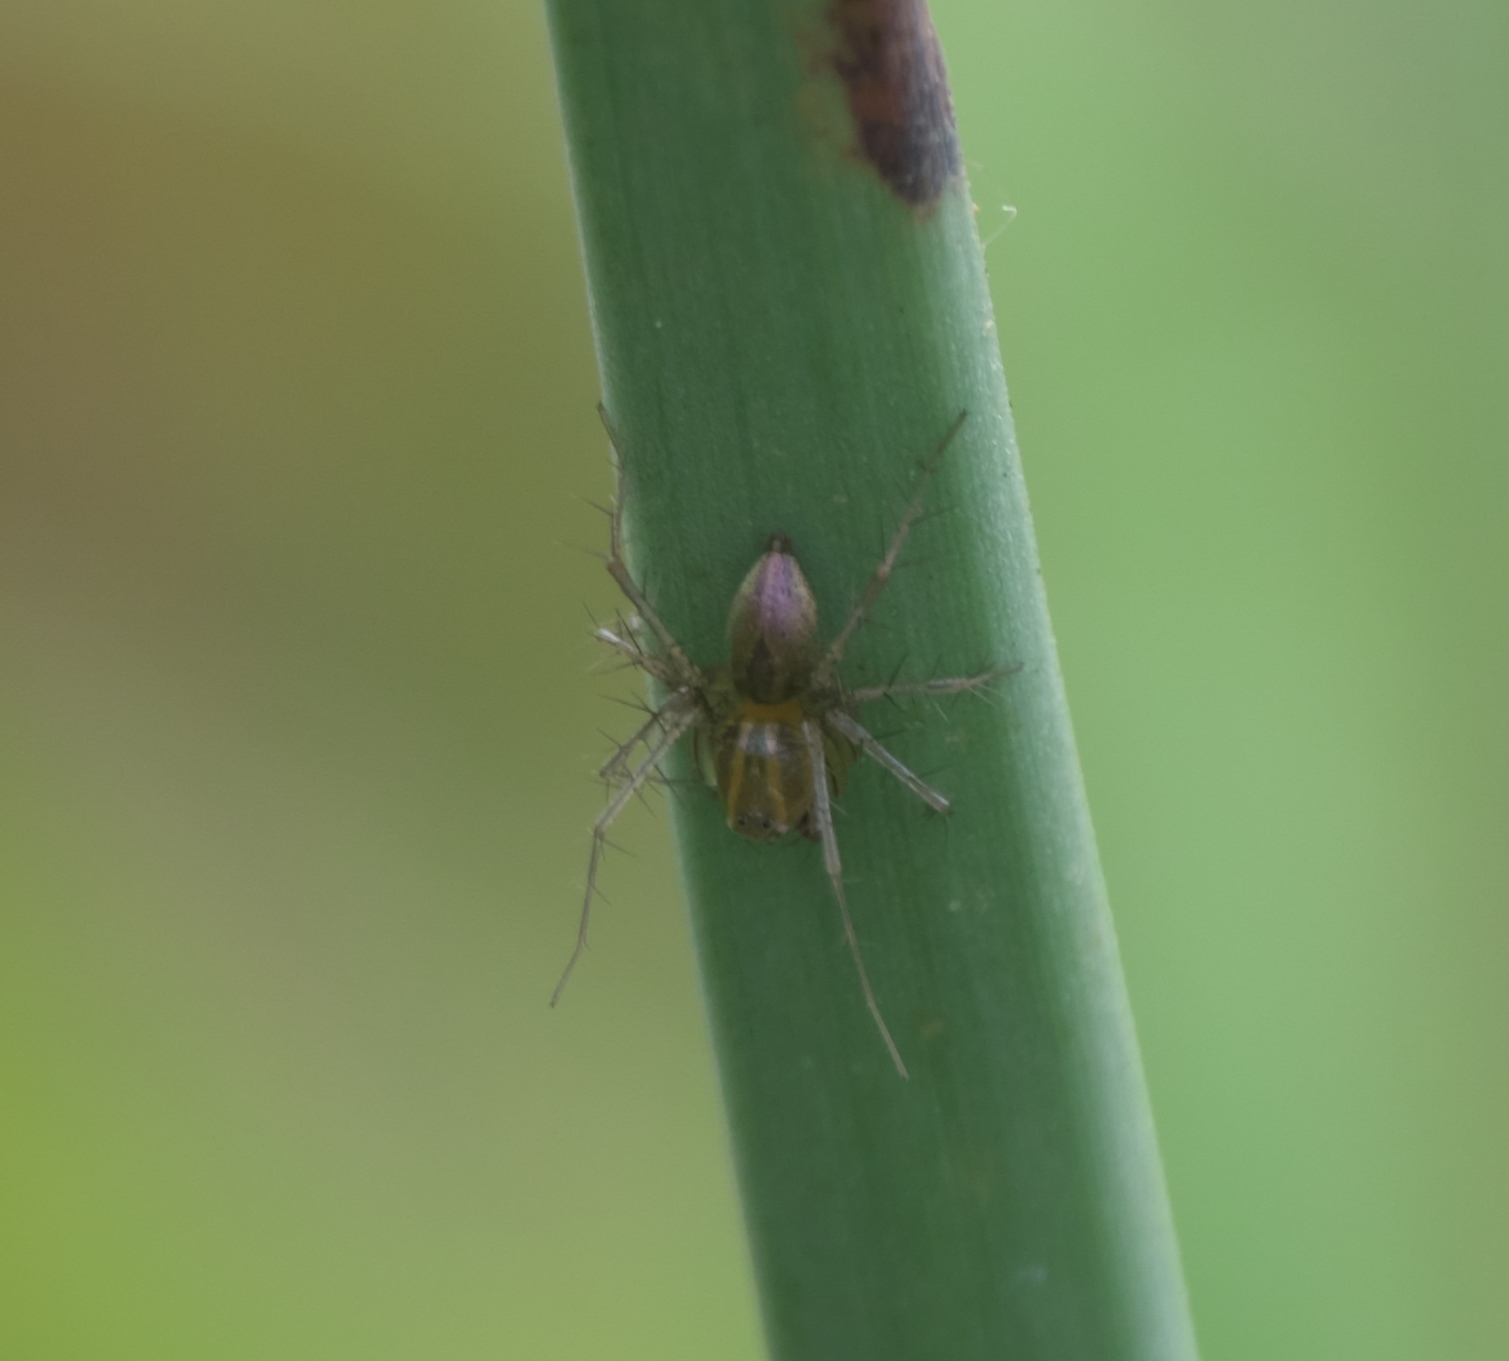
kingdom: Animalia
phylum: Arthropoda
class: Arachnida
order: Araneae
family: Oxyopidae
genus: Oxyopes
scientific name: Oxyopes salticus
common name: Lynx spiders
